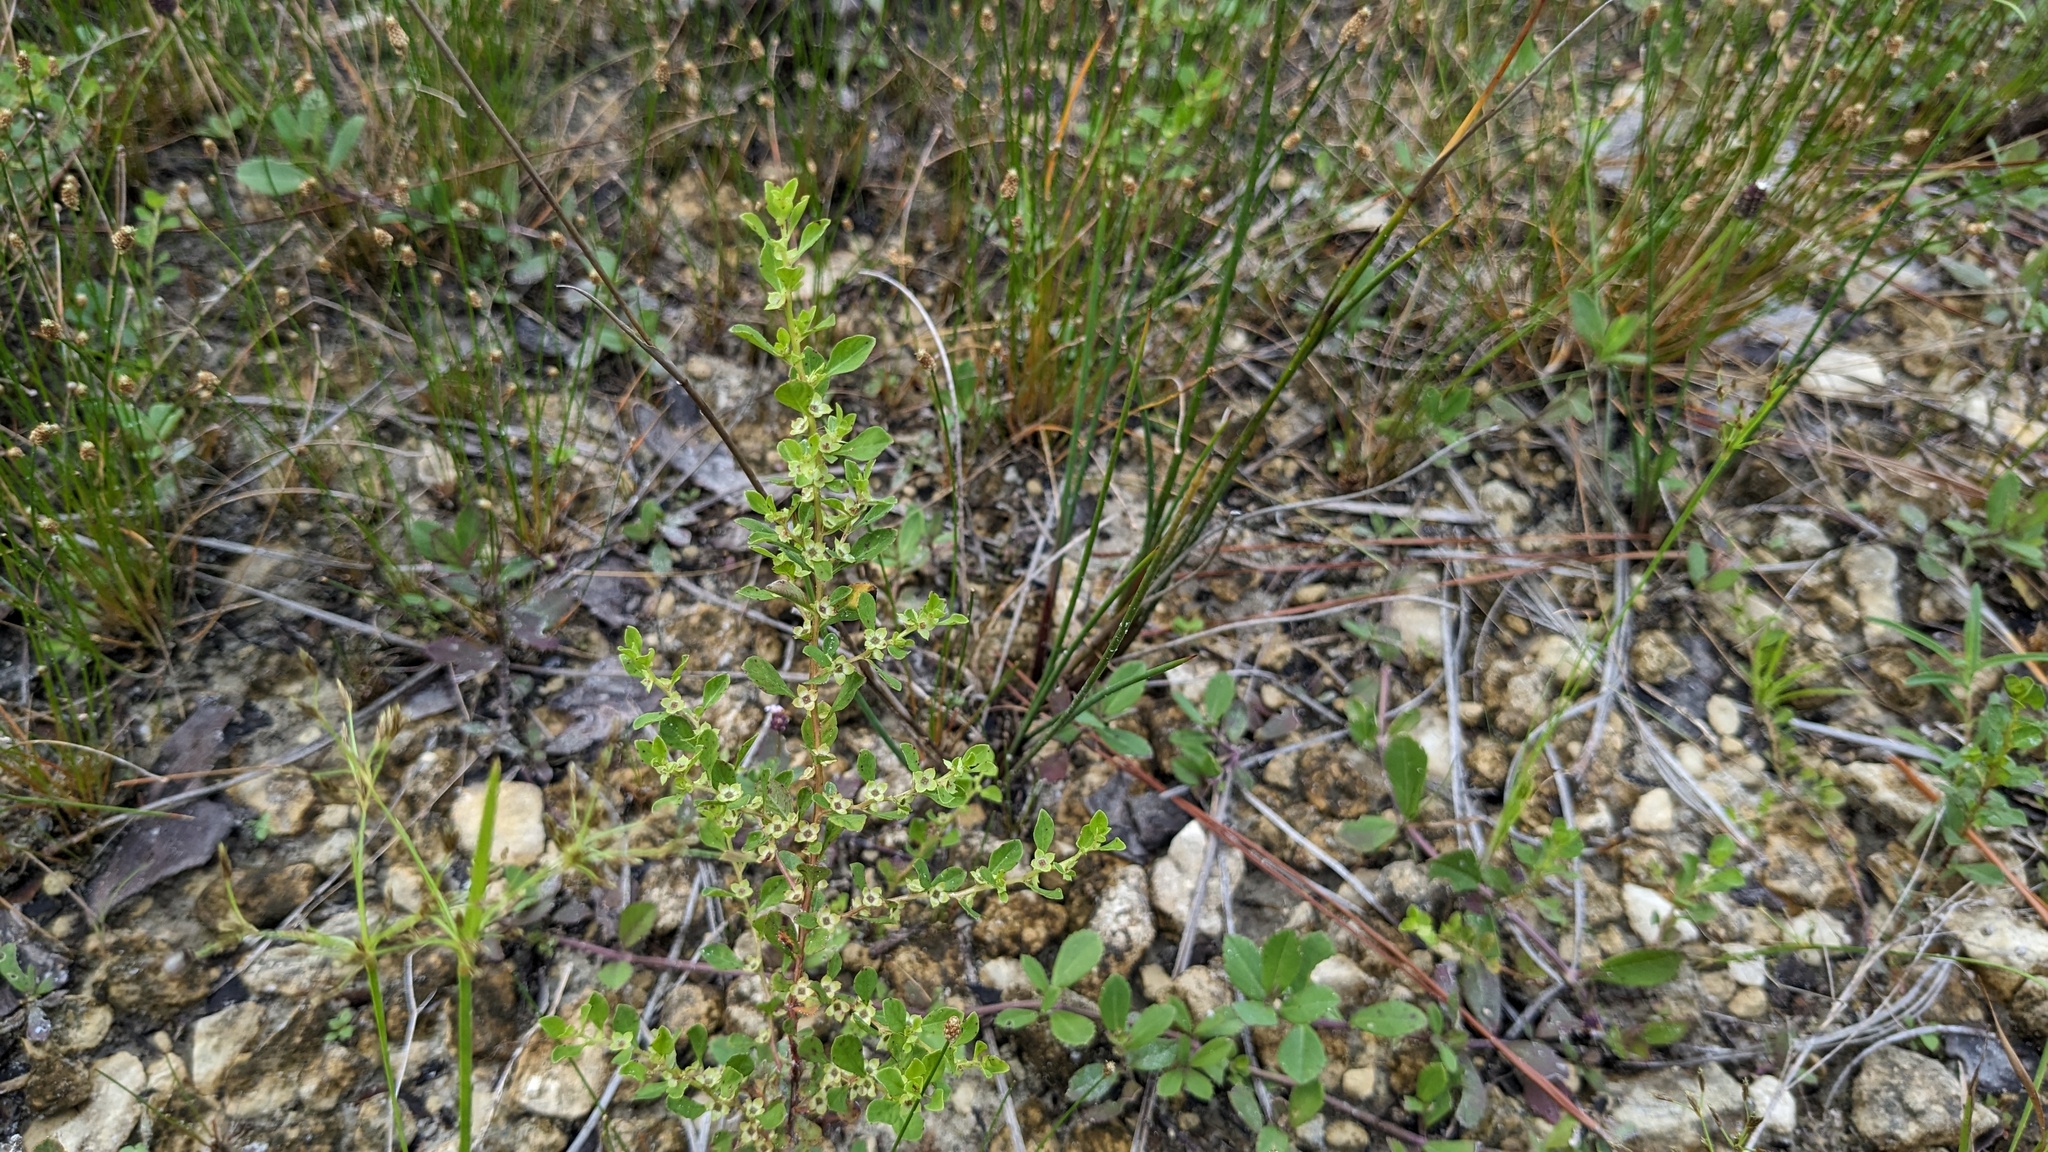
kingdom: Plantae
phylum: Tracheophyta
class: Magnoliopsida
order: Myrtales
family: Onagraceae
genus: Ludwigia
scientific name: Ludwigia microcarpa
